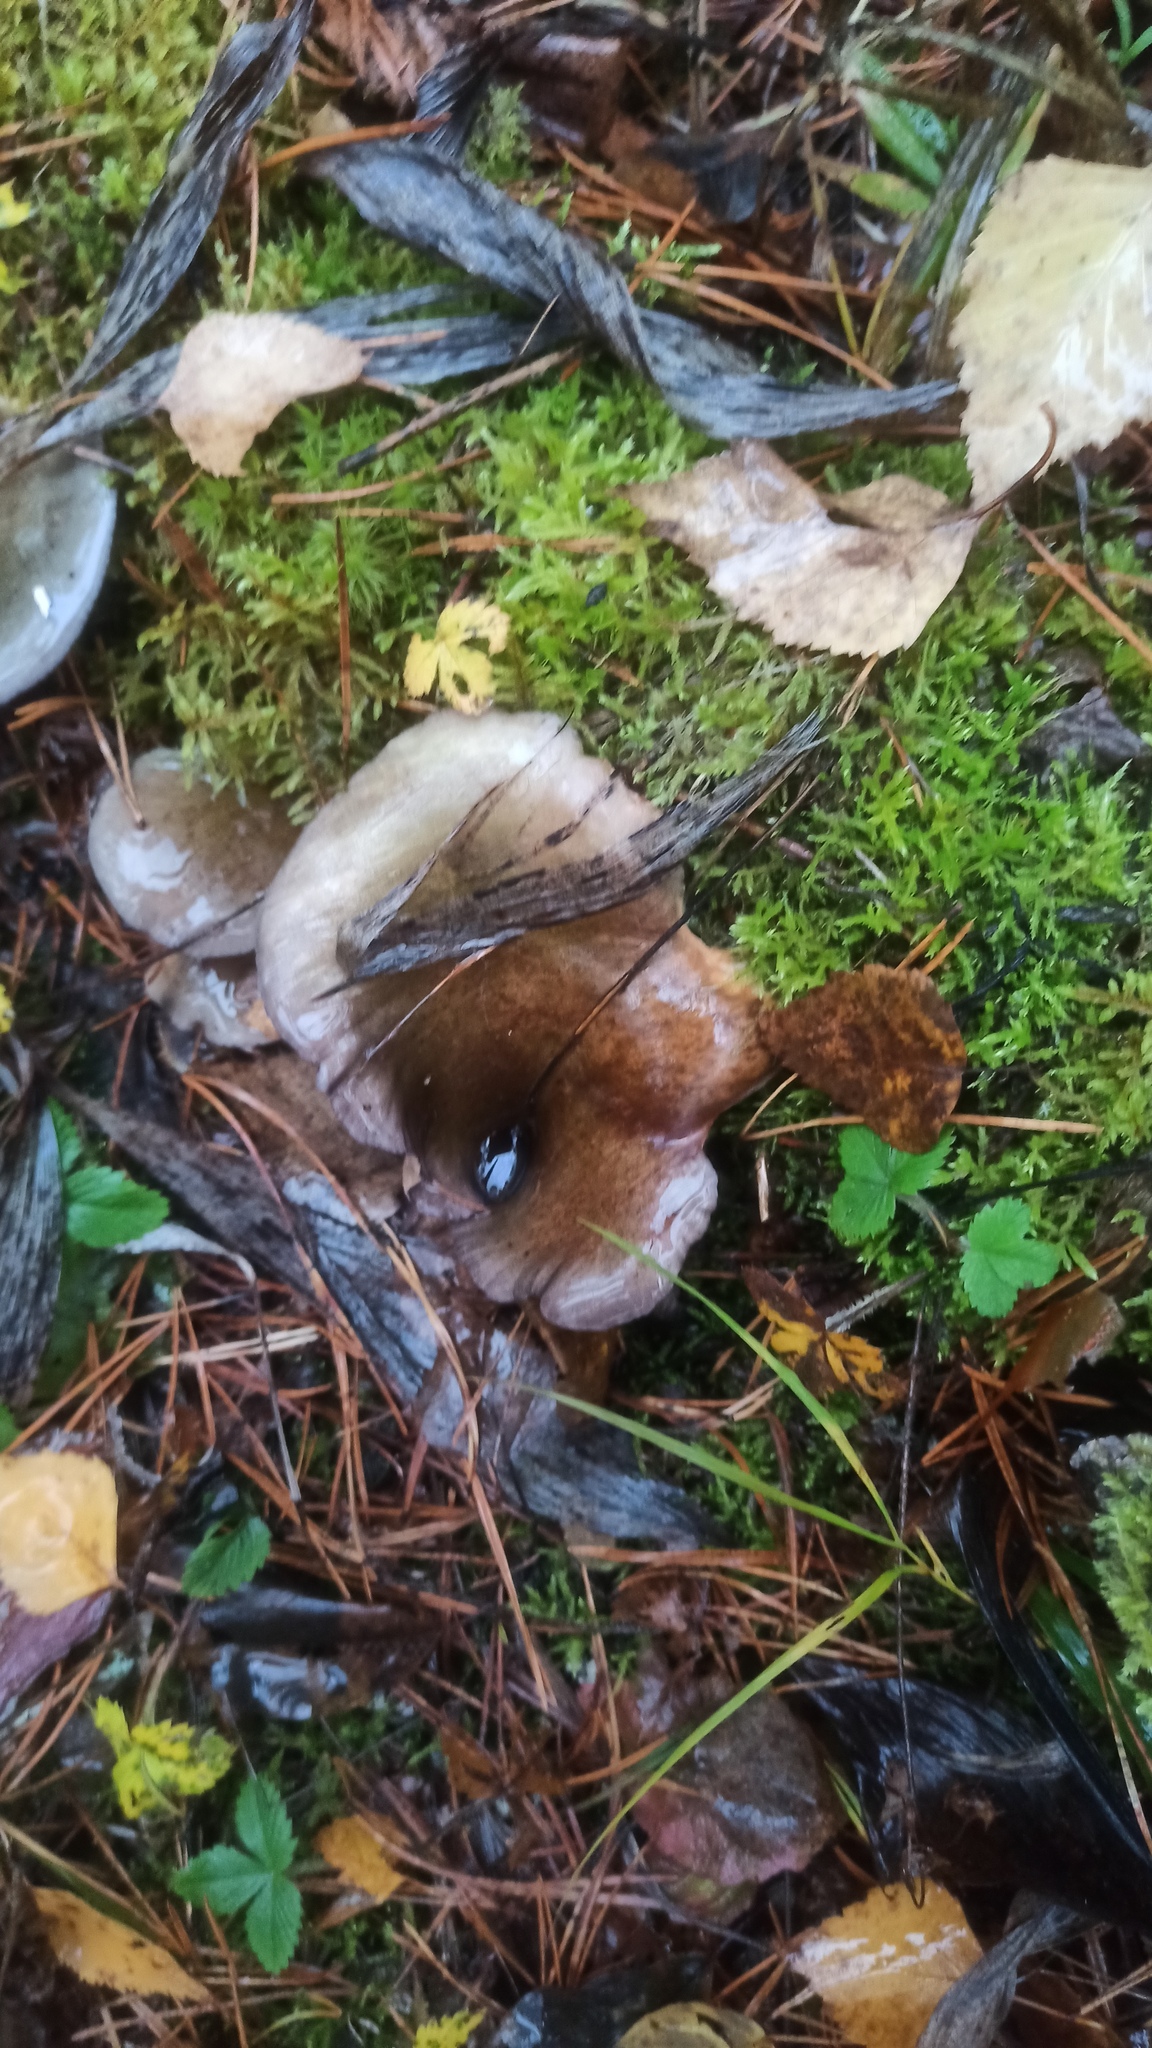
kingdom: Fungi
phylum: Basidiomycota
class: Agaricomycetes
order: Agaricales
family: Sarcomyxaceae
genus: Sarcomyxa
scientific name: Sarcomyxa serotina
